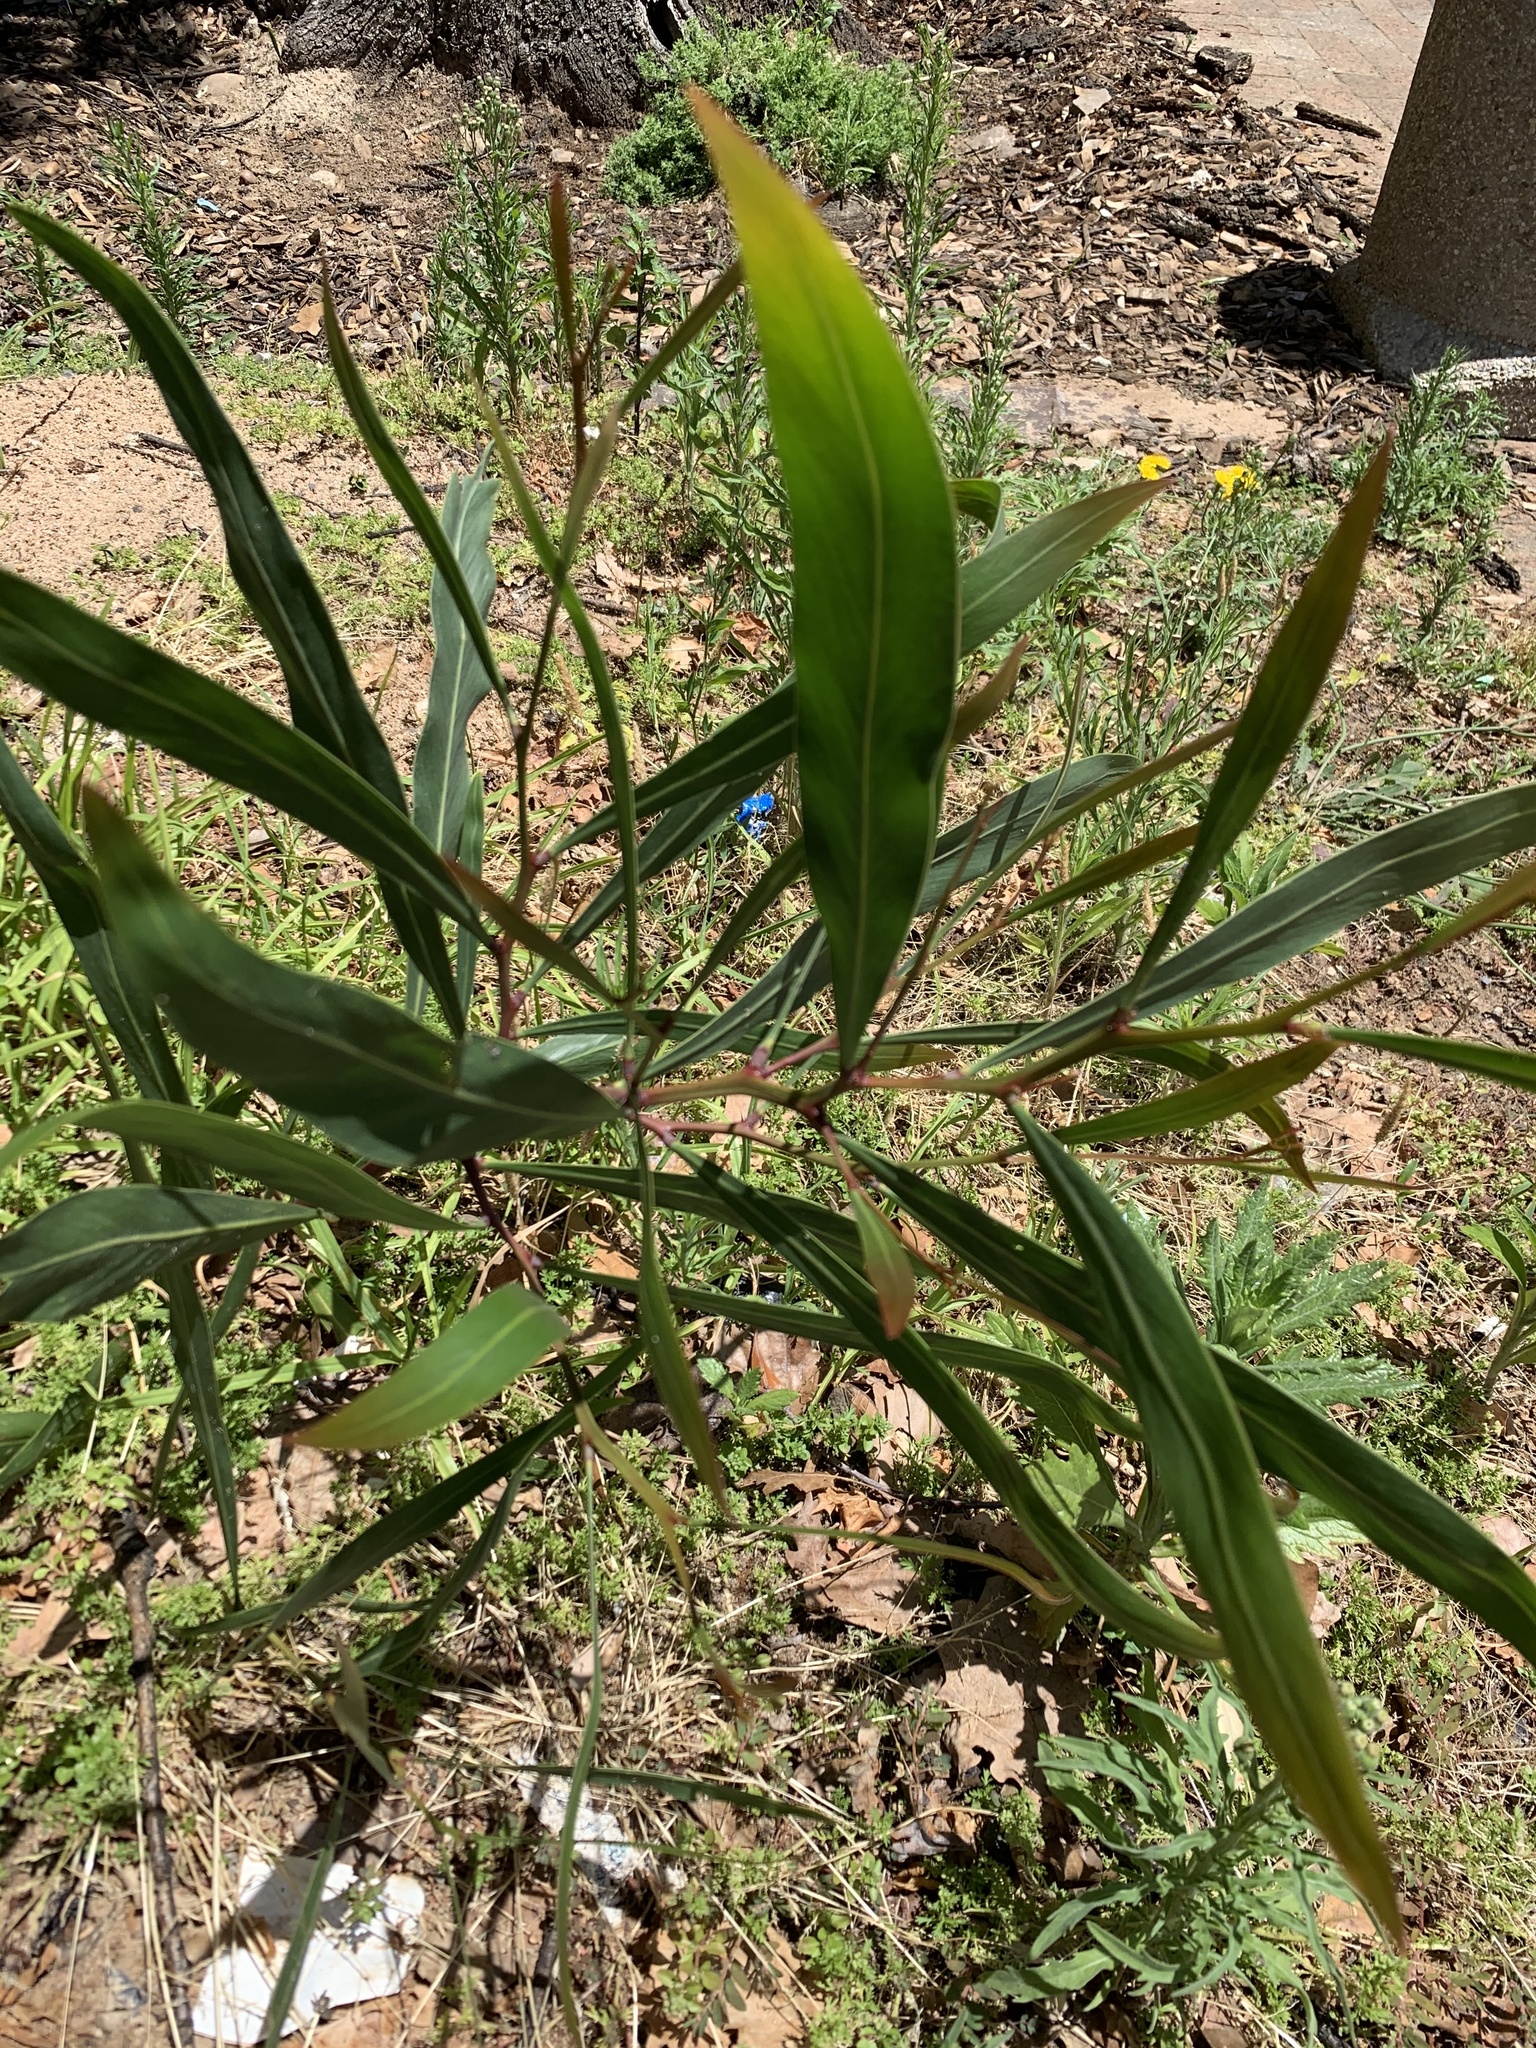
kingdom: Plantae
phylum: Tracheophyta
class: Magnoliopsida
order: Fabales
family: Fabaceae
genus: Acacia
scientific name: Acacia saligna
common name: Orange wattle
